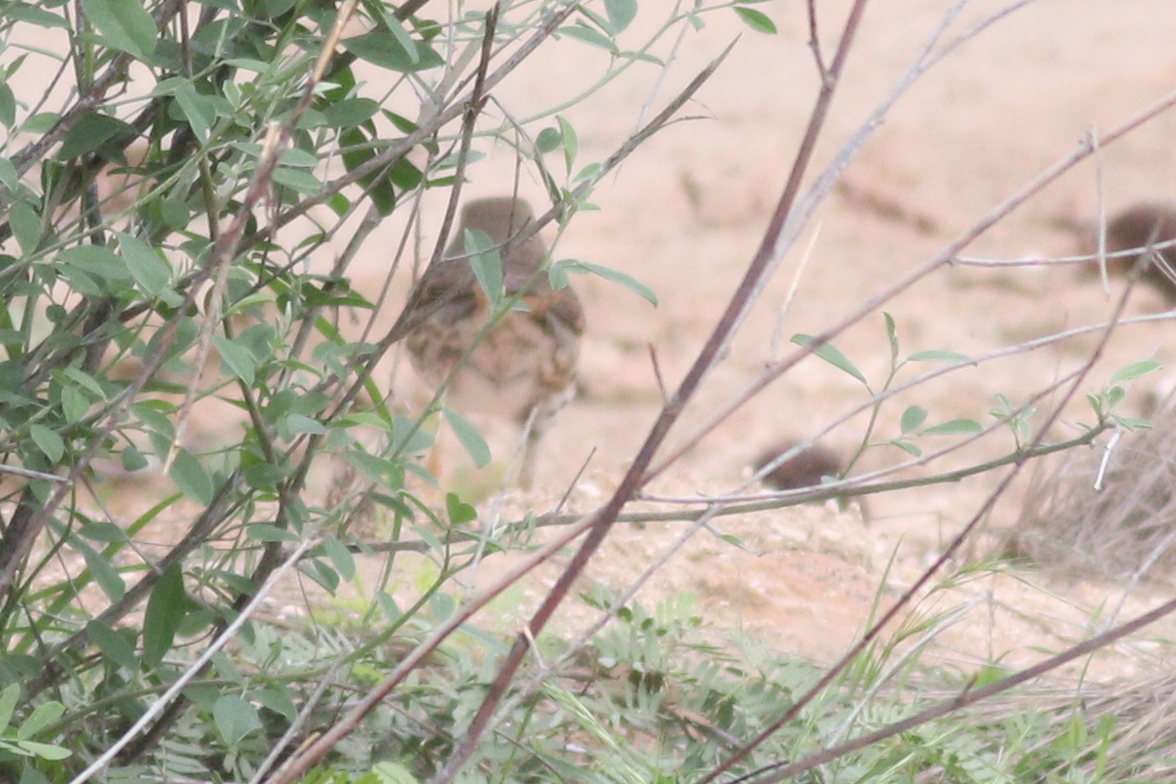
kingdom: Animalia
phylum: Chordata
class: Aves
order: Passeriformes
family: Turdidae
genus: Turdus
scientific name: Turdus philomelos
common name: Song thrush
